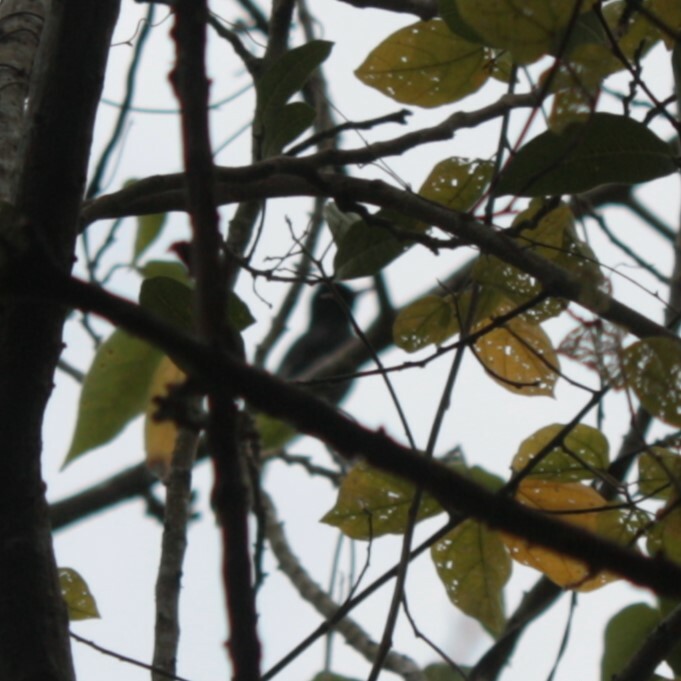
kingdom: Animalia
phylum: Chordata
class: Aves
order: Passeriformes
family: Pycnonotidae
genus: Hypsipetes
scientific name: Hypsipetes leucocephalus
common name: Black bulbul
